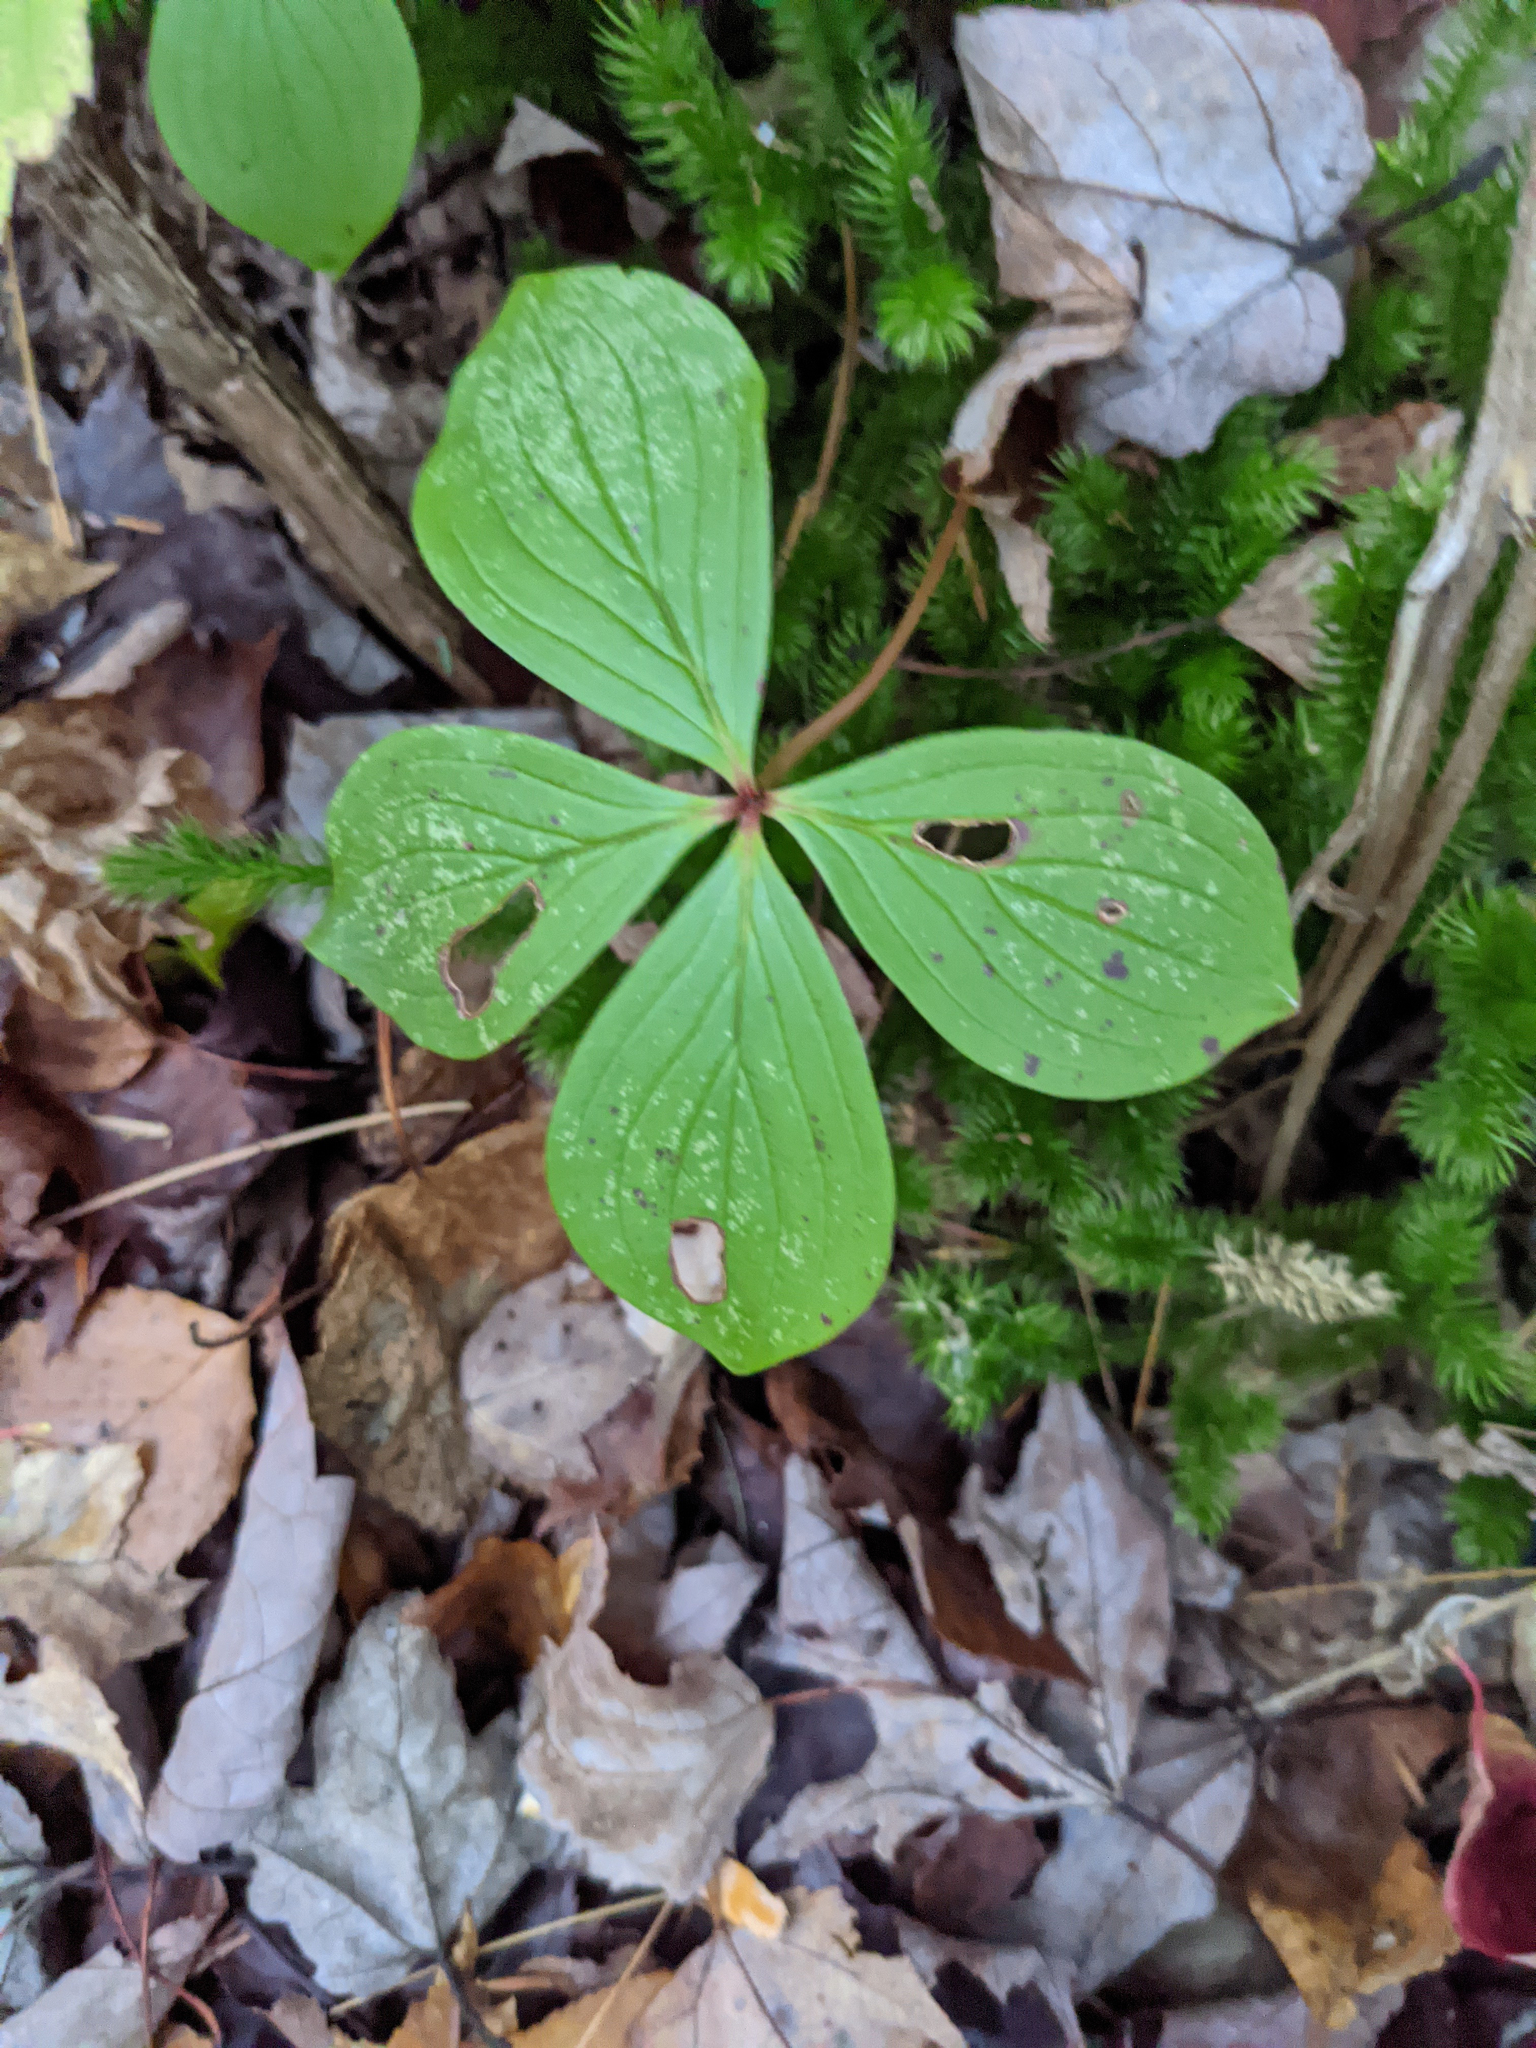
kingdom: Plantae
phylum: Tracheophyta
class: Magnoliopsida
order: Cornales
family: Cornaceae
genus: Cornus
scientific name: Cornus canadensis
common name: Creeping dogwood
